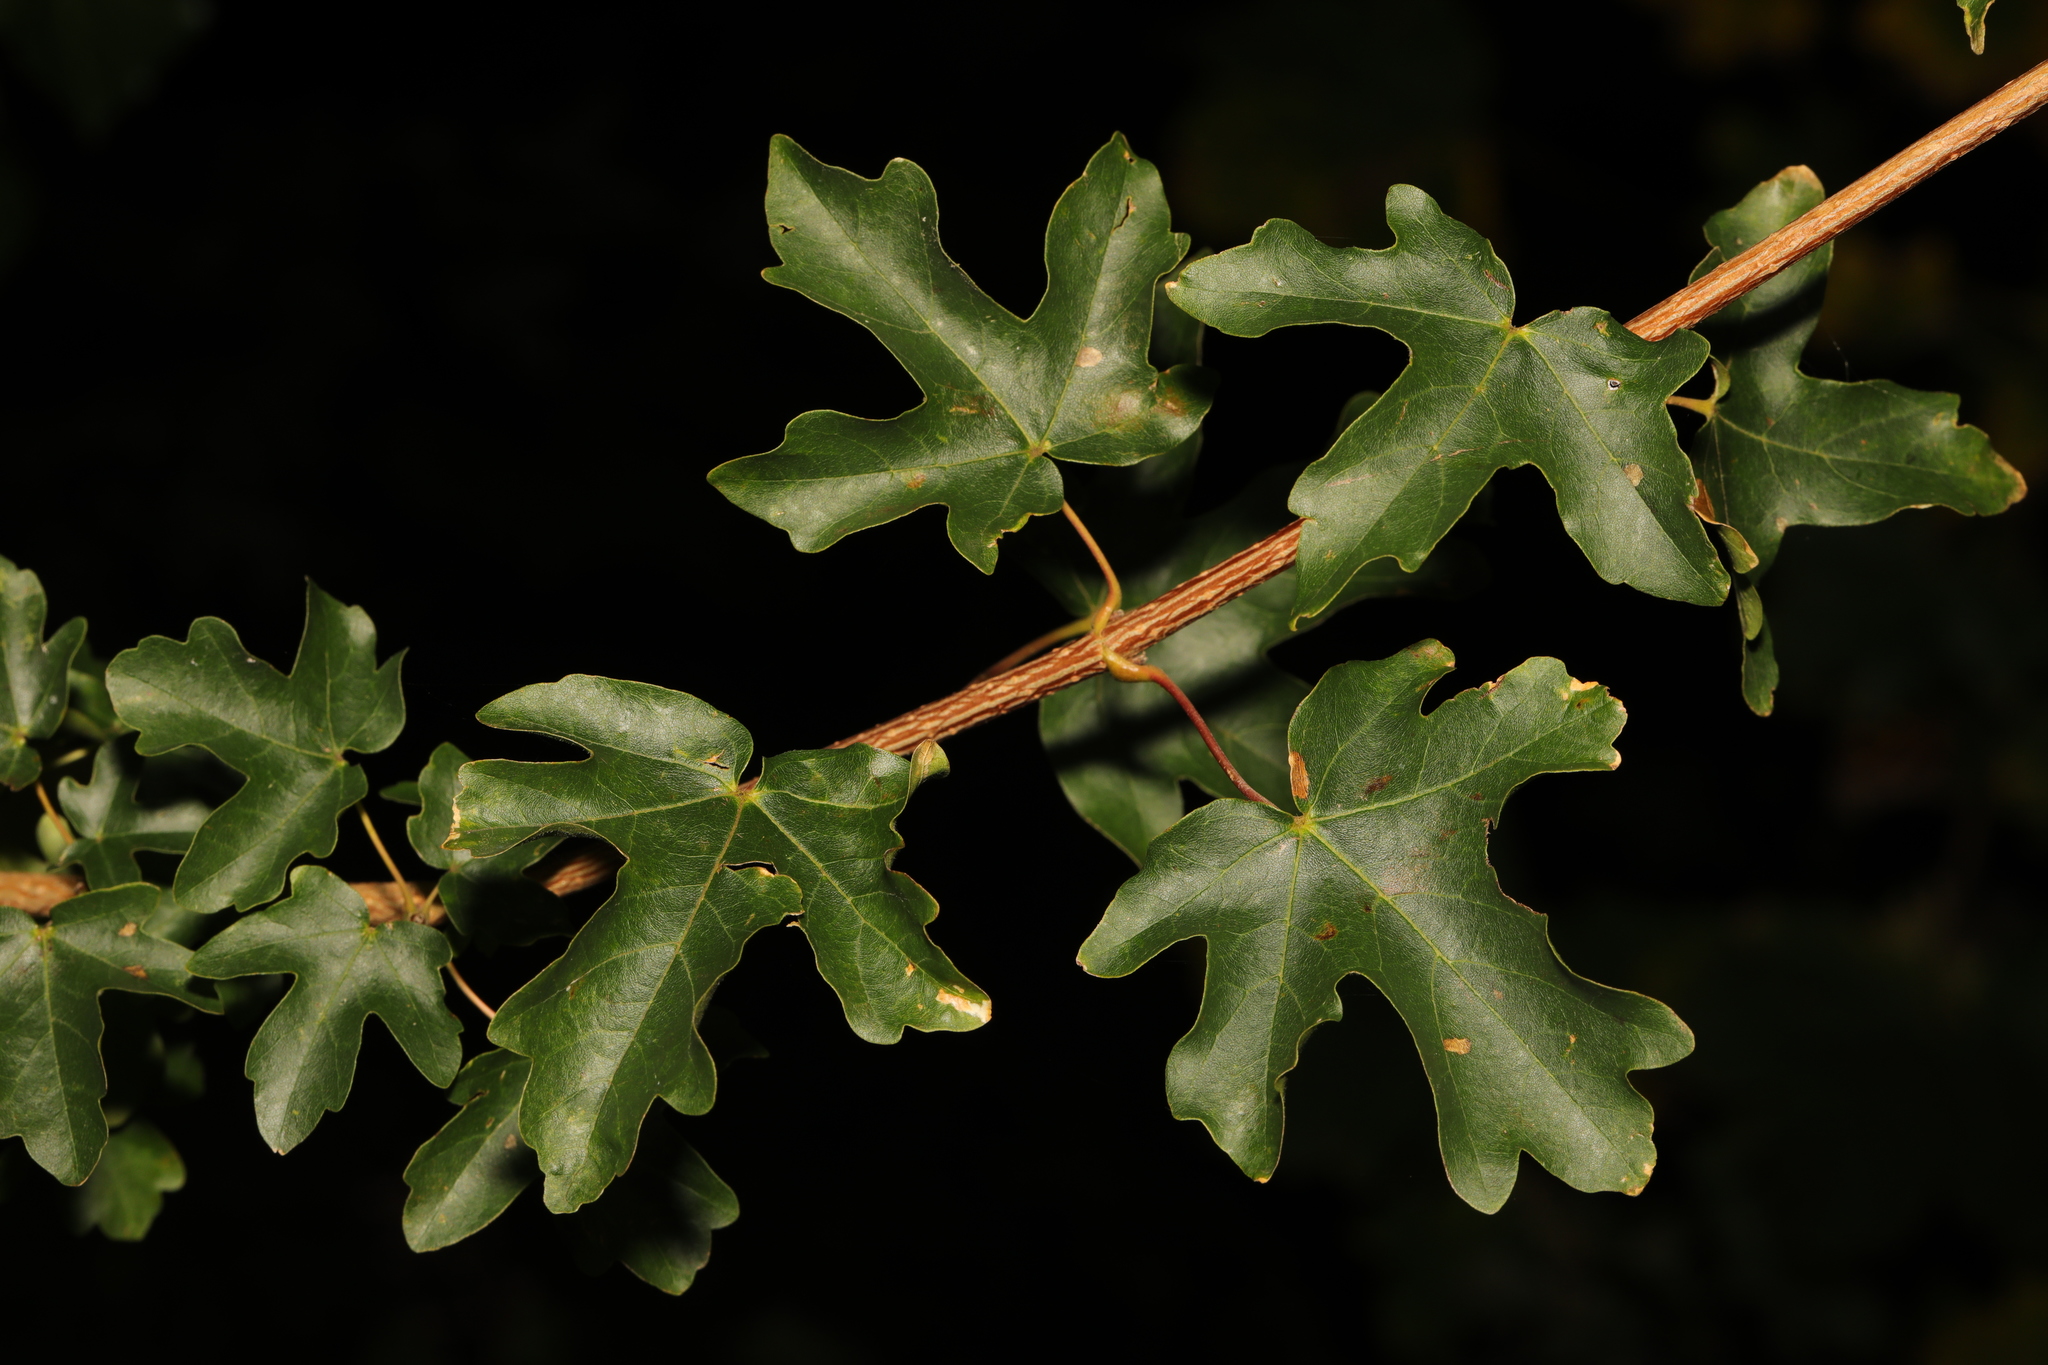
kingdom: Plantae
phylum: Tracheophyta
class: Magnoliopsida
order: Sapindales
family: Sapindaceae
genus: Acer
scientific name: Acer campestre
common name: Field maple
